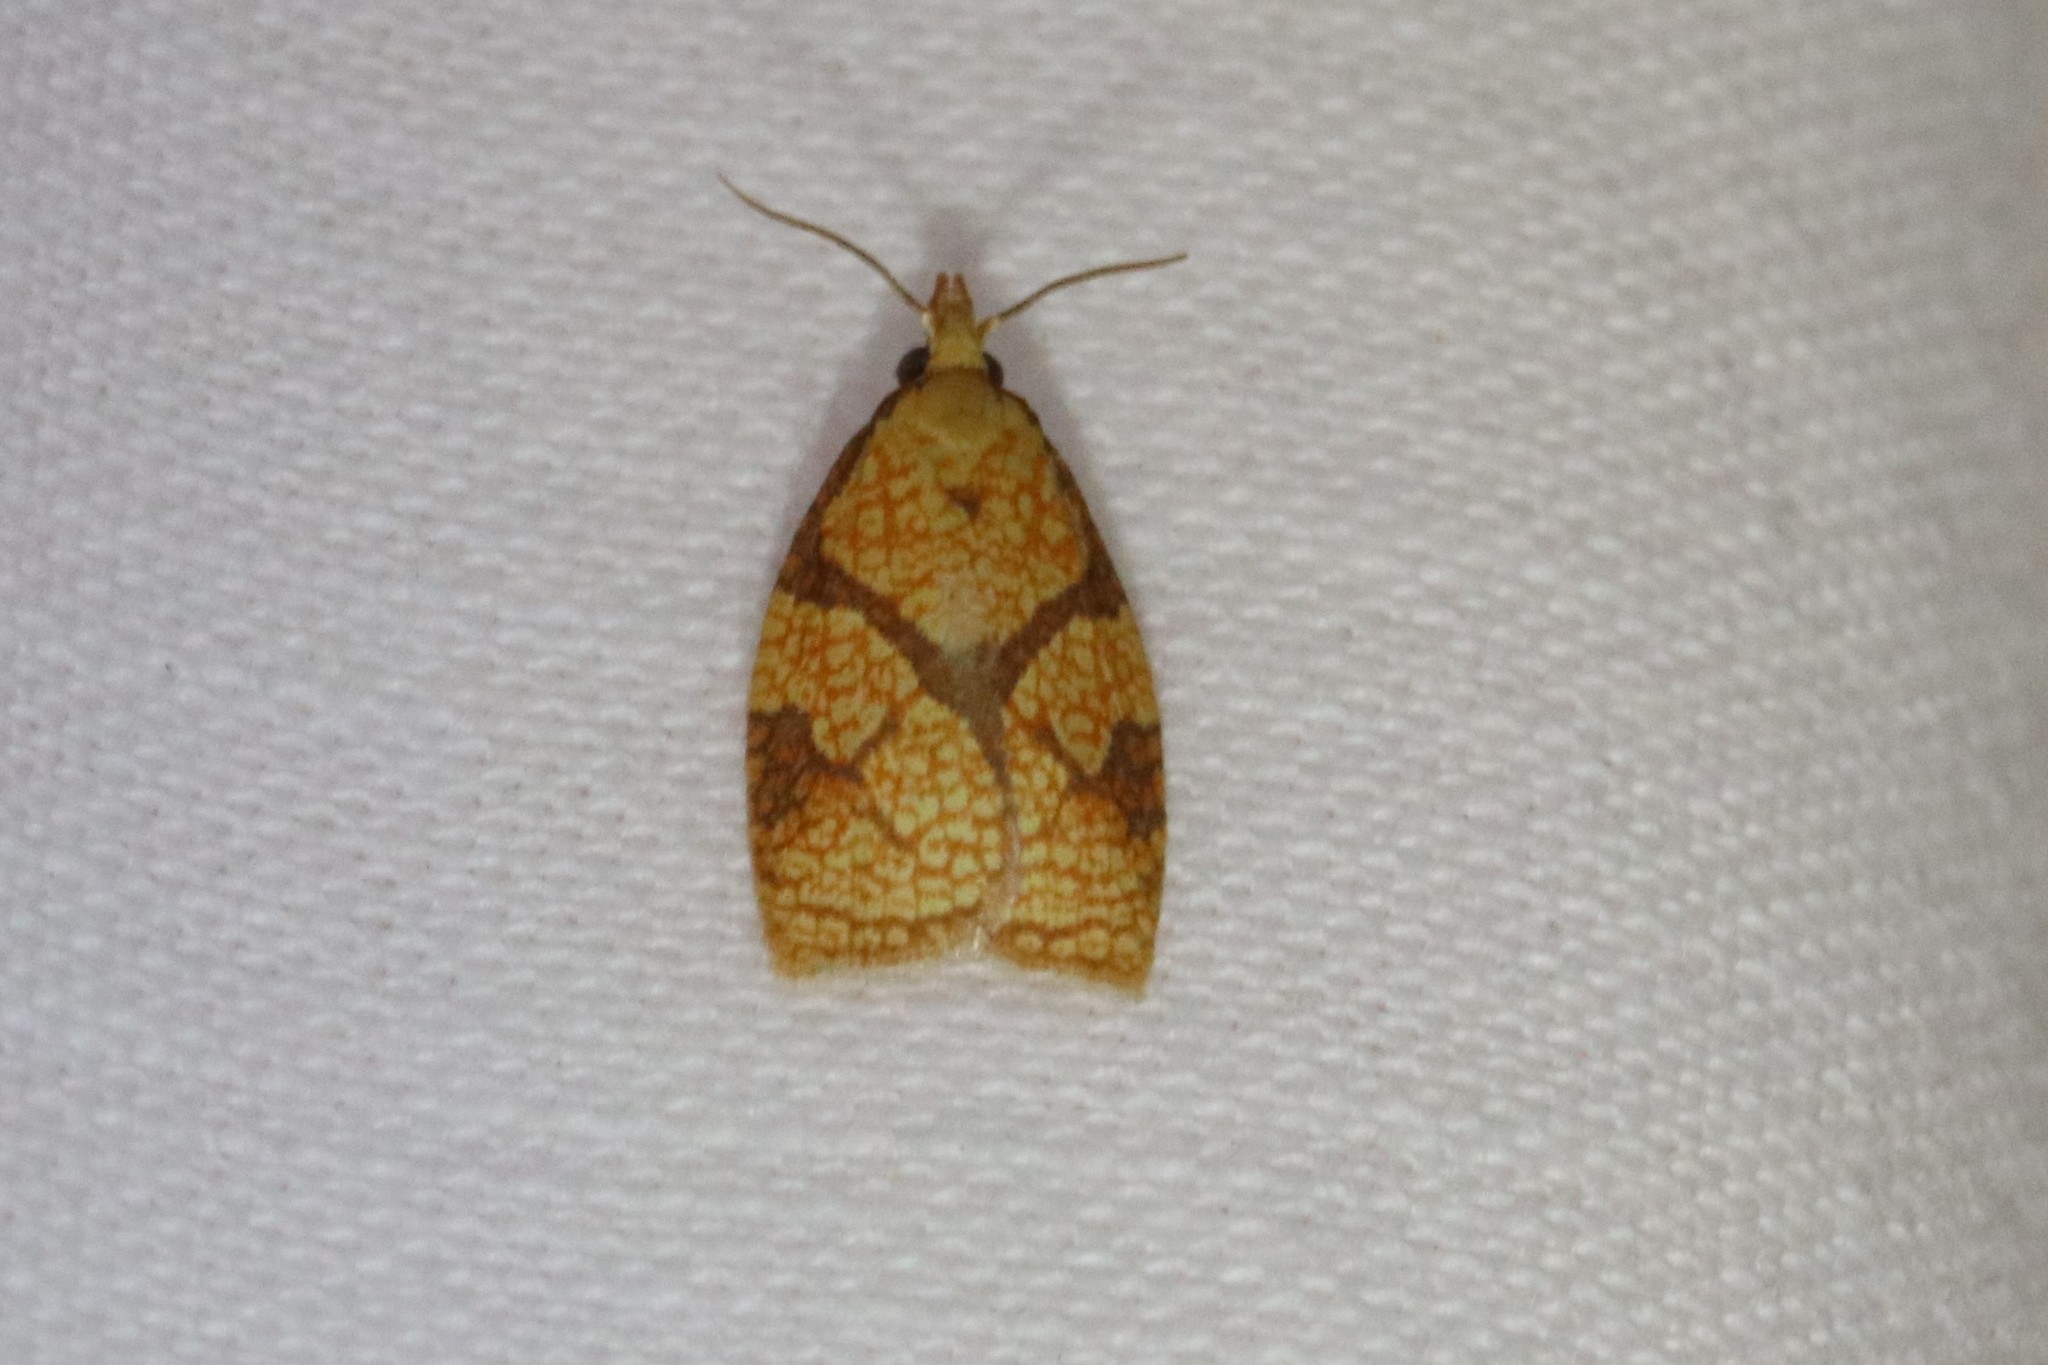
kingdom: Animalia
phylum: Arthropoda
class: Insecta
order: Lepidoptera
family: Tortricidae
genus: Cenopis
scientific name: Cenopis reticulatana
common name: Reticulated fruitworm moth
